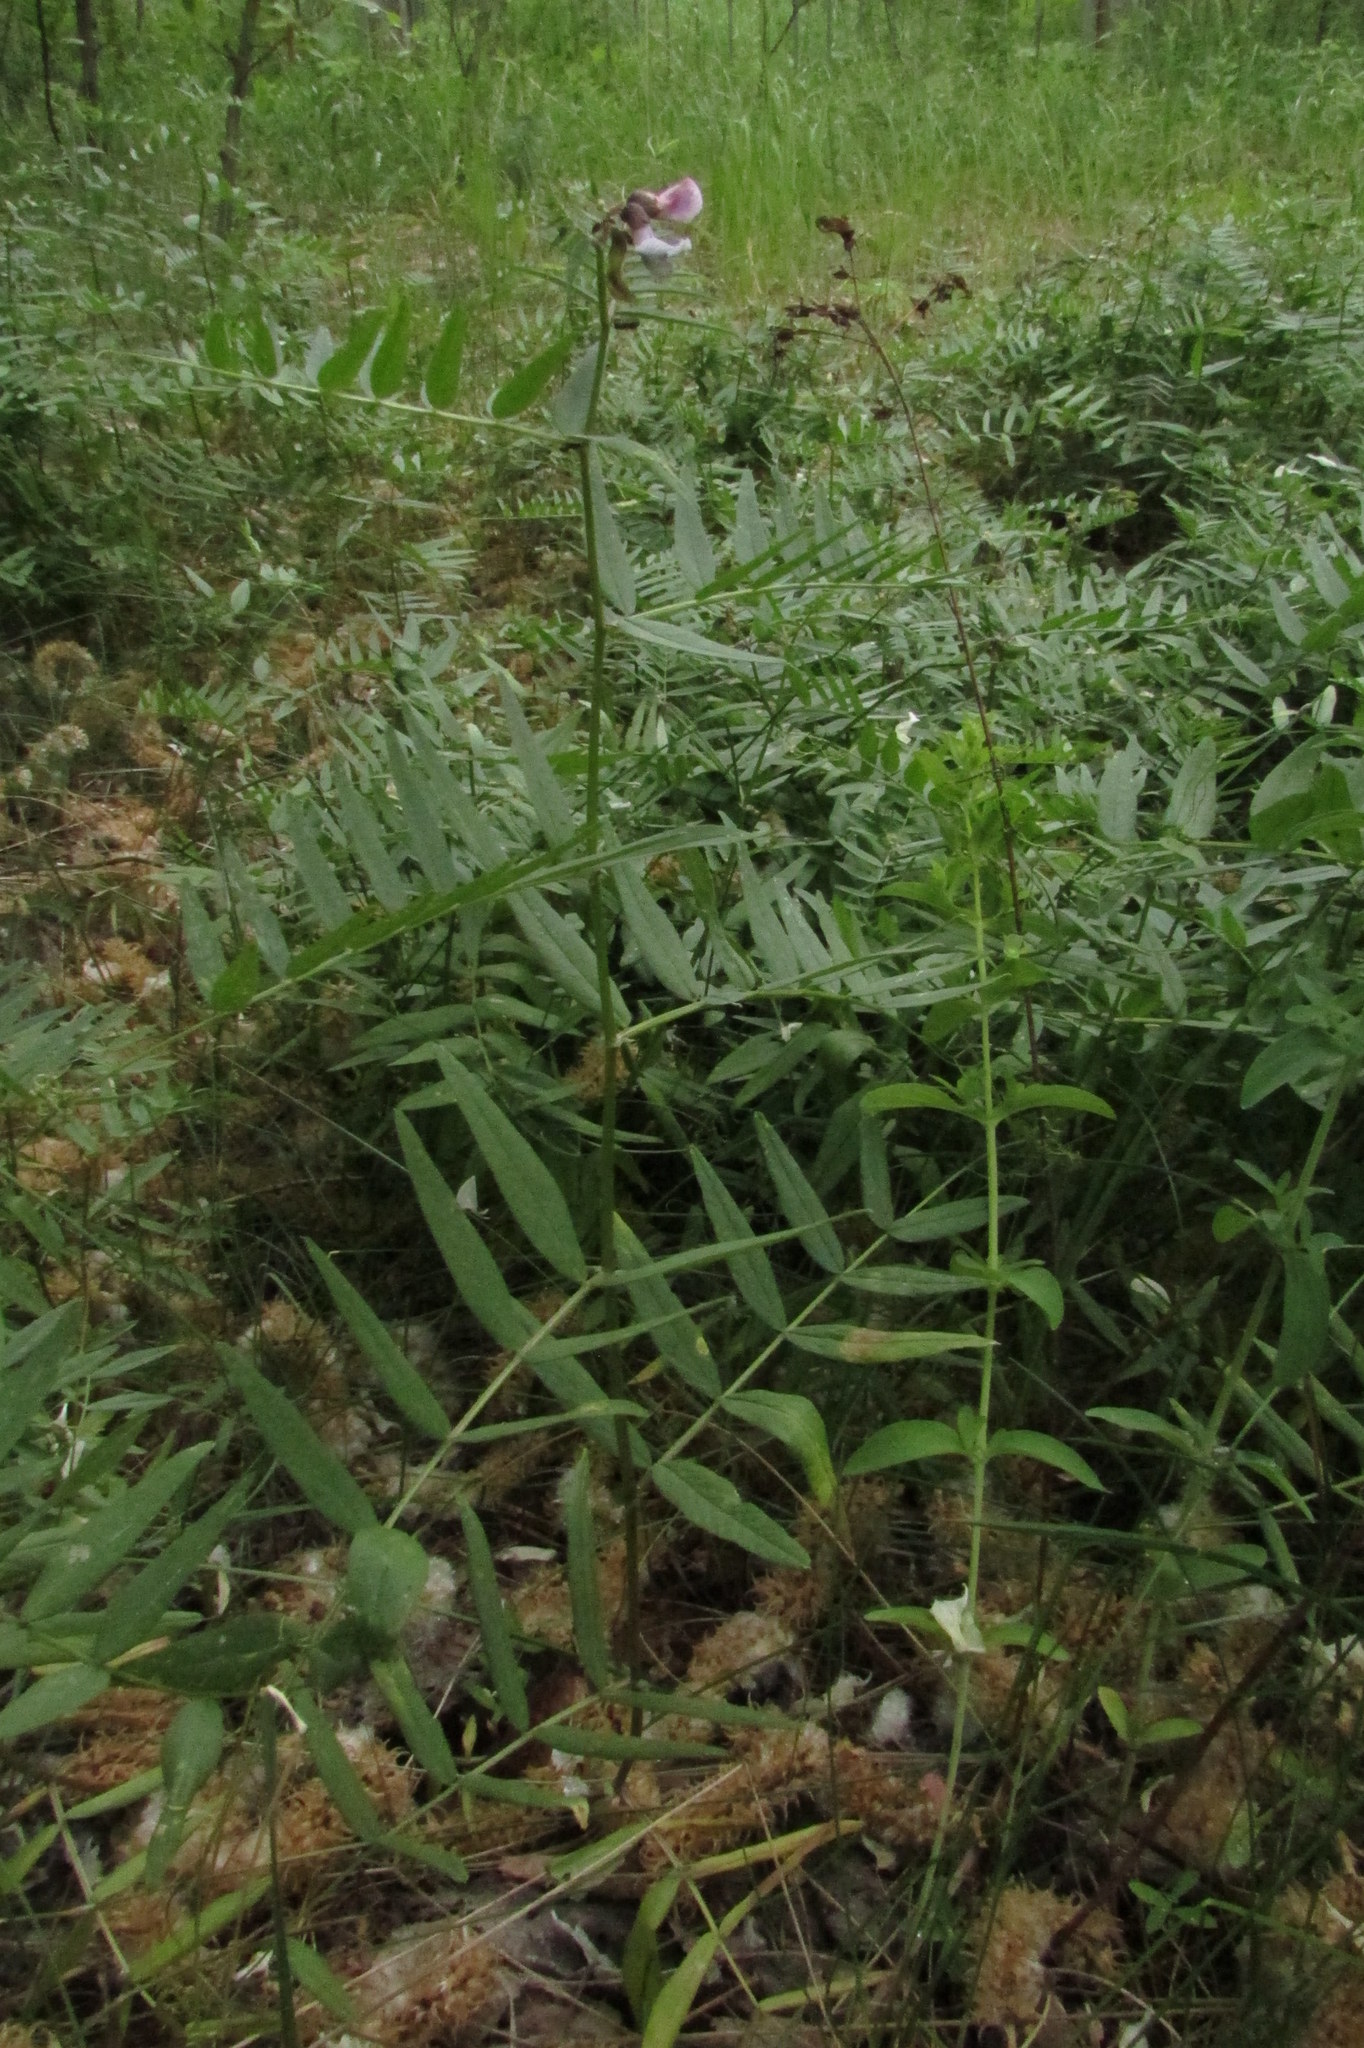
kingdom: Plantae
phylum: Tracheophyta
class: Magnoliopsida
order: Fabales
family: Fabaceae
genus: Vicia
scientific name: Vicia sepium
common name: Bush vetch
